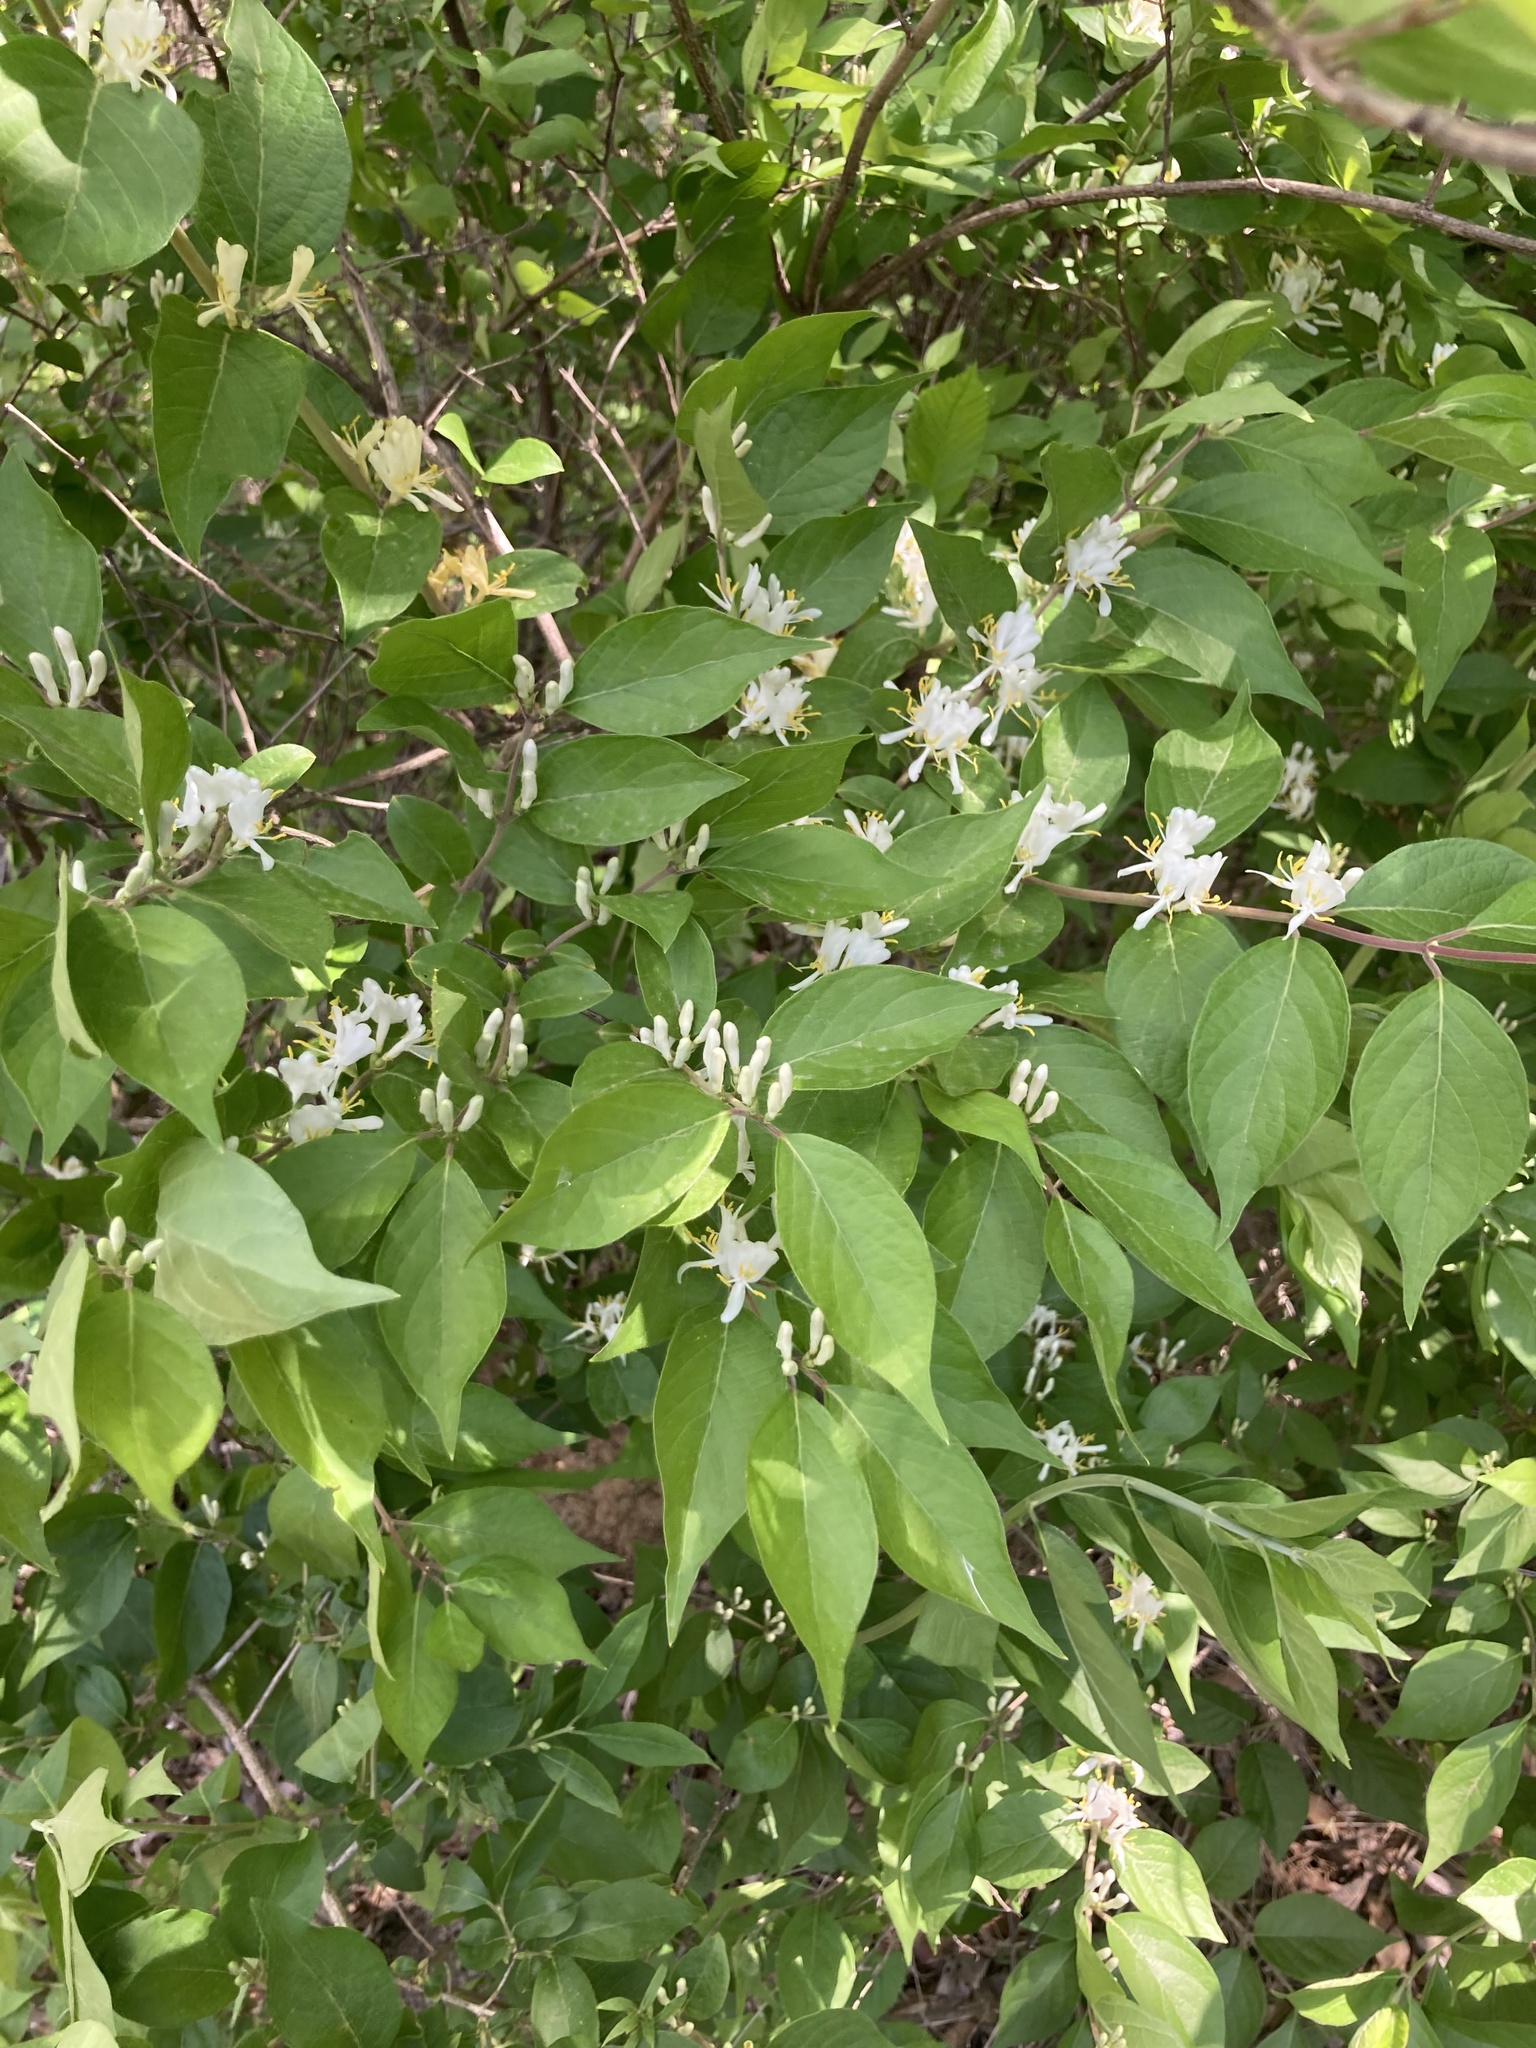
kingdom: Plantae
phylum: Tracheophyta
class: Magnoliopsida
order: Dipsacales
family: Caprifoliaceae
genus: Lonicera
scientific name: Lonicera maackii
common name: Amur honeysuckle
